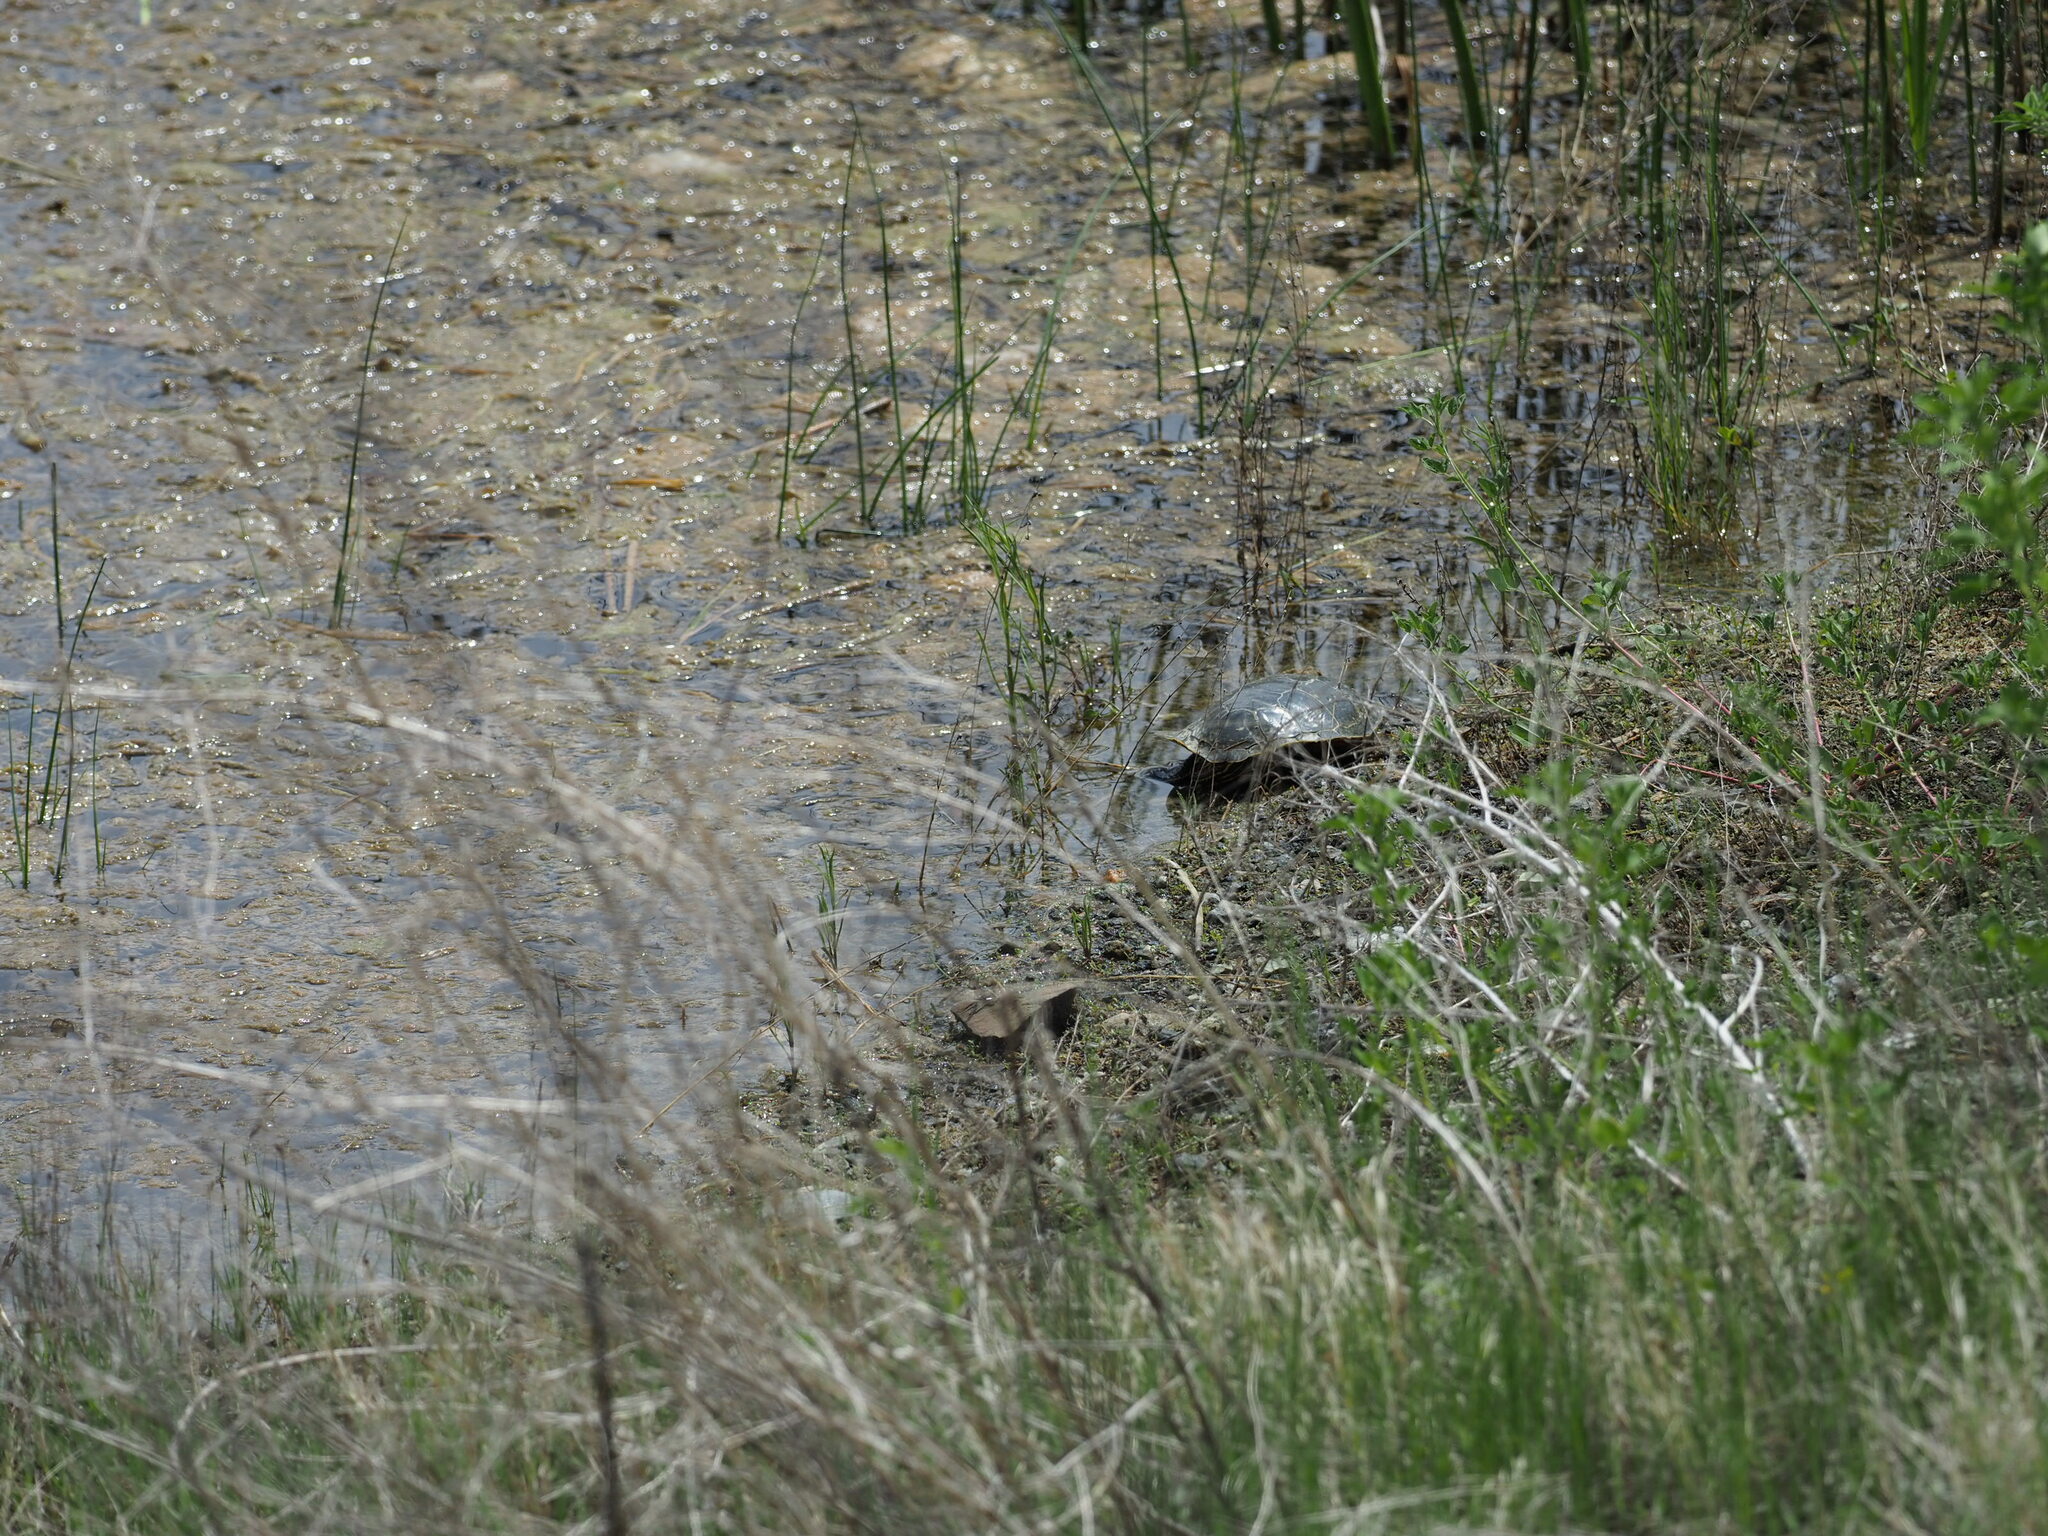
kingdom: Animalia
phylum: Chordata
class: Testudines
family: Emydidae
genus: Chrysemys
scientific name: Chrysemys picta
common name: Painted turtle
